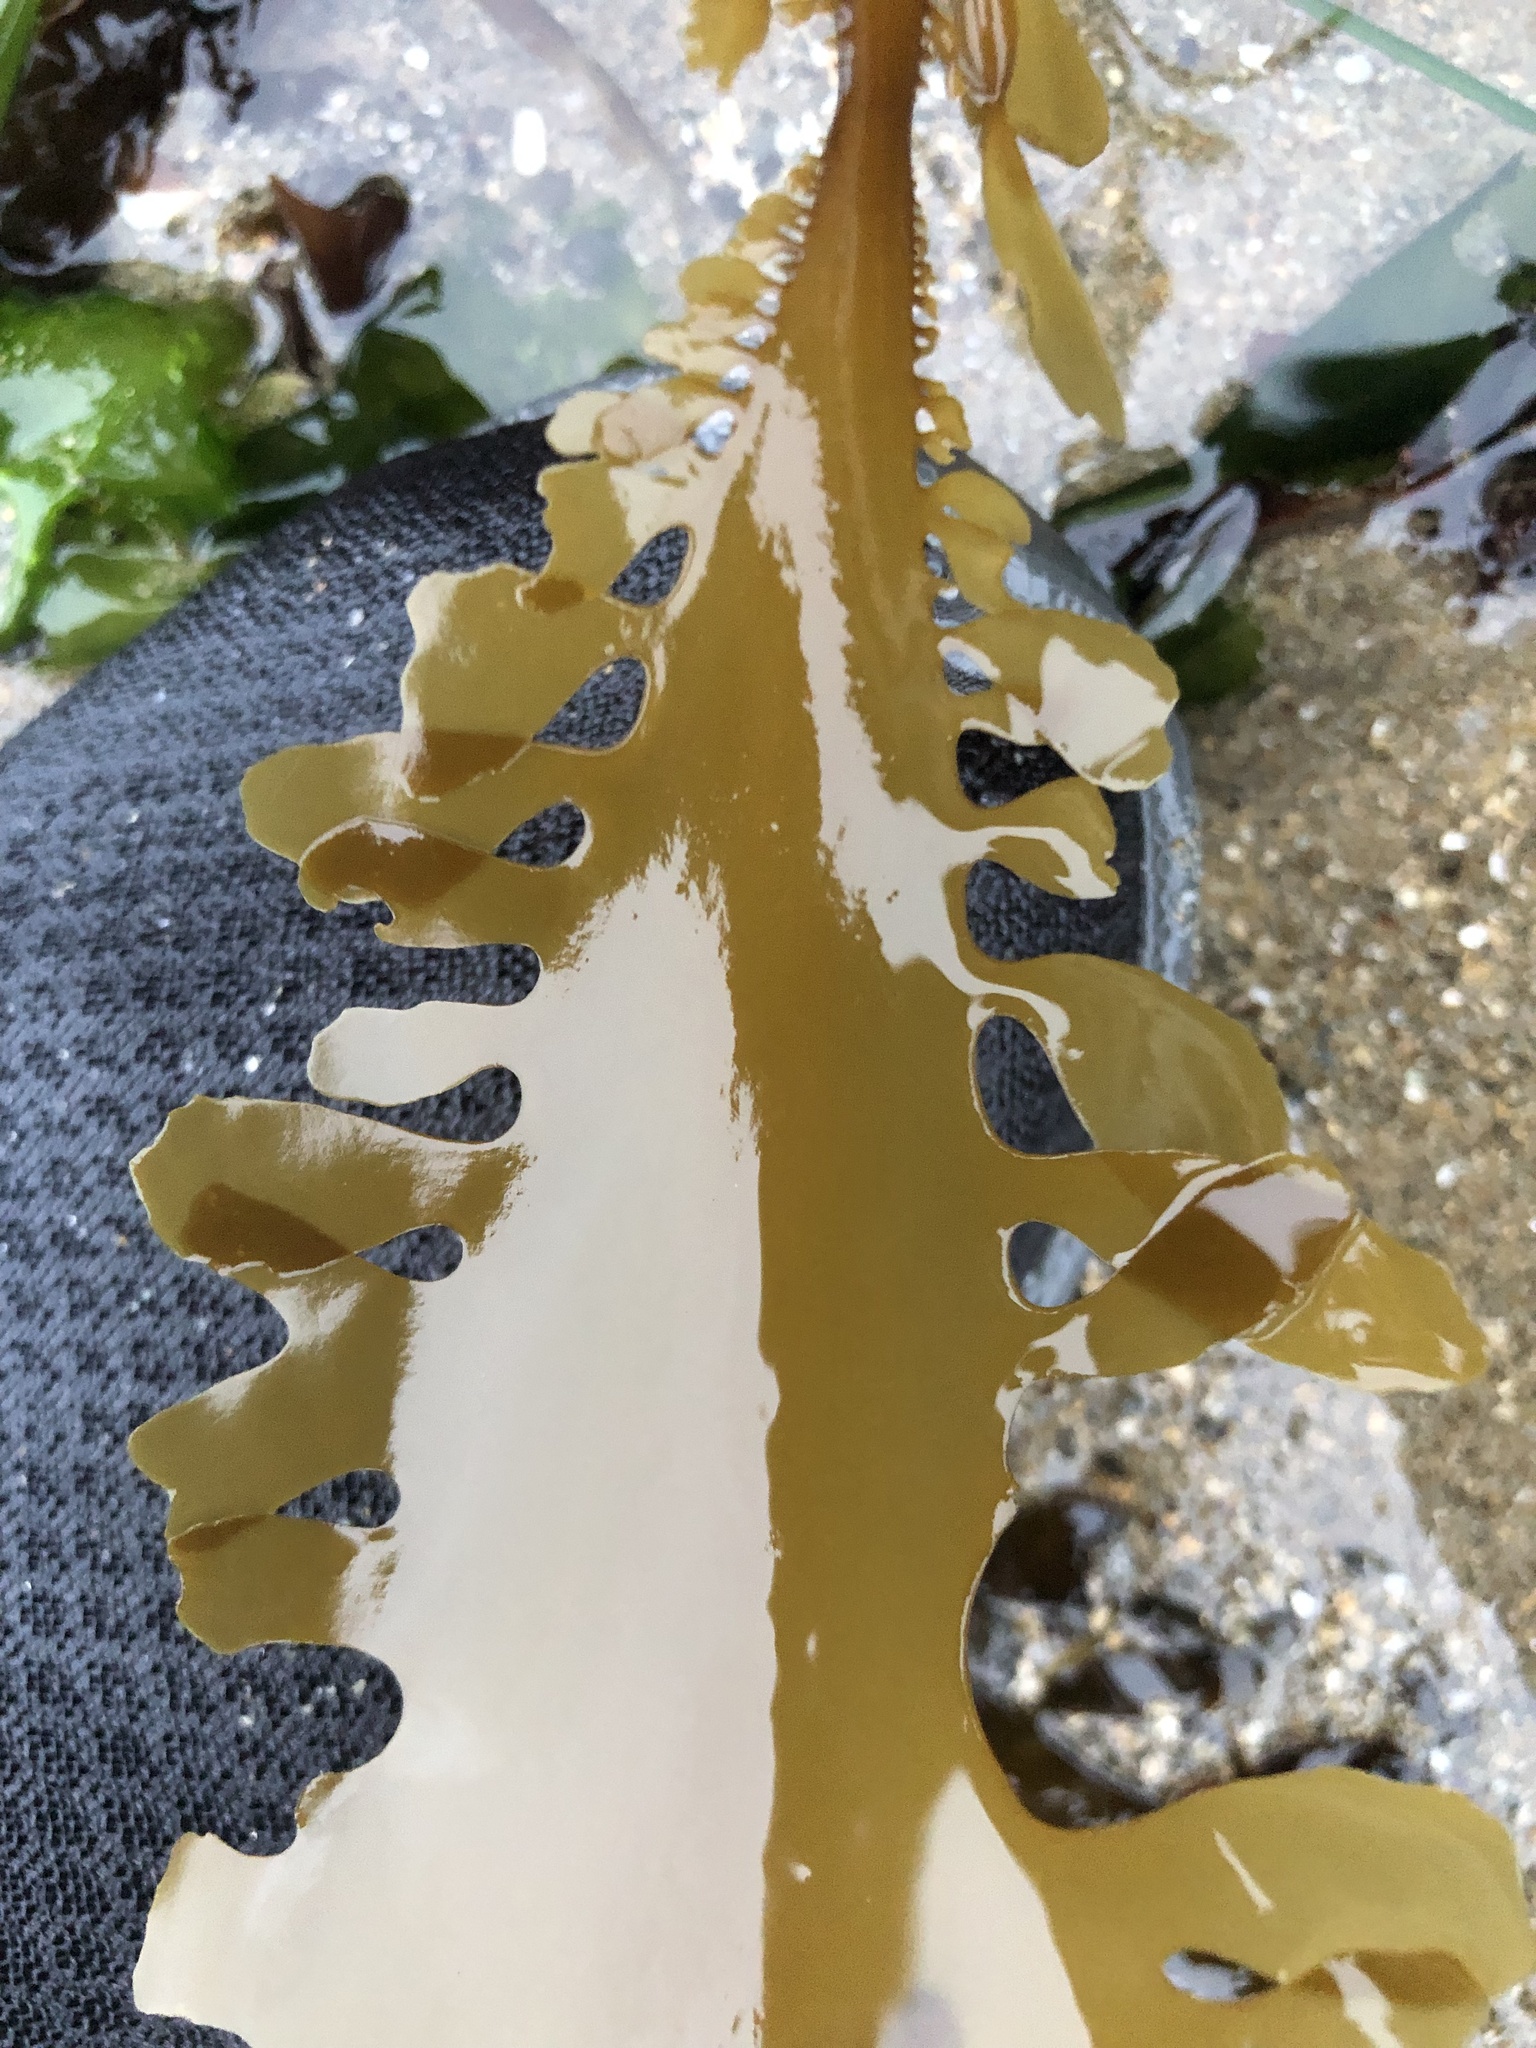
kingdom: Chromista
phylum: Ochrophyta
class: Phaeophyceae
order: Laminariales
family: Lessoniaceae
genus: Egregia
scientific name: Egregia menziesii
